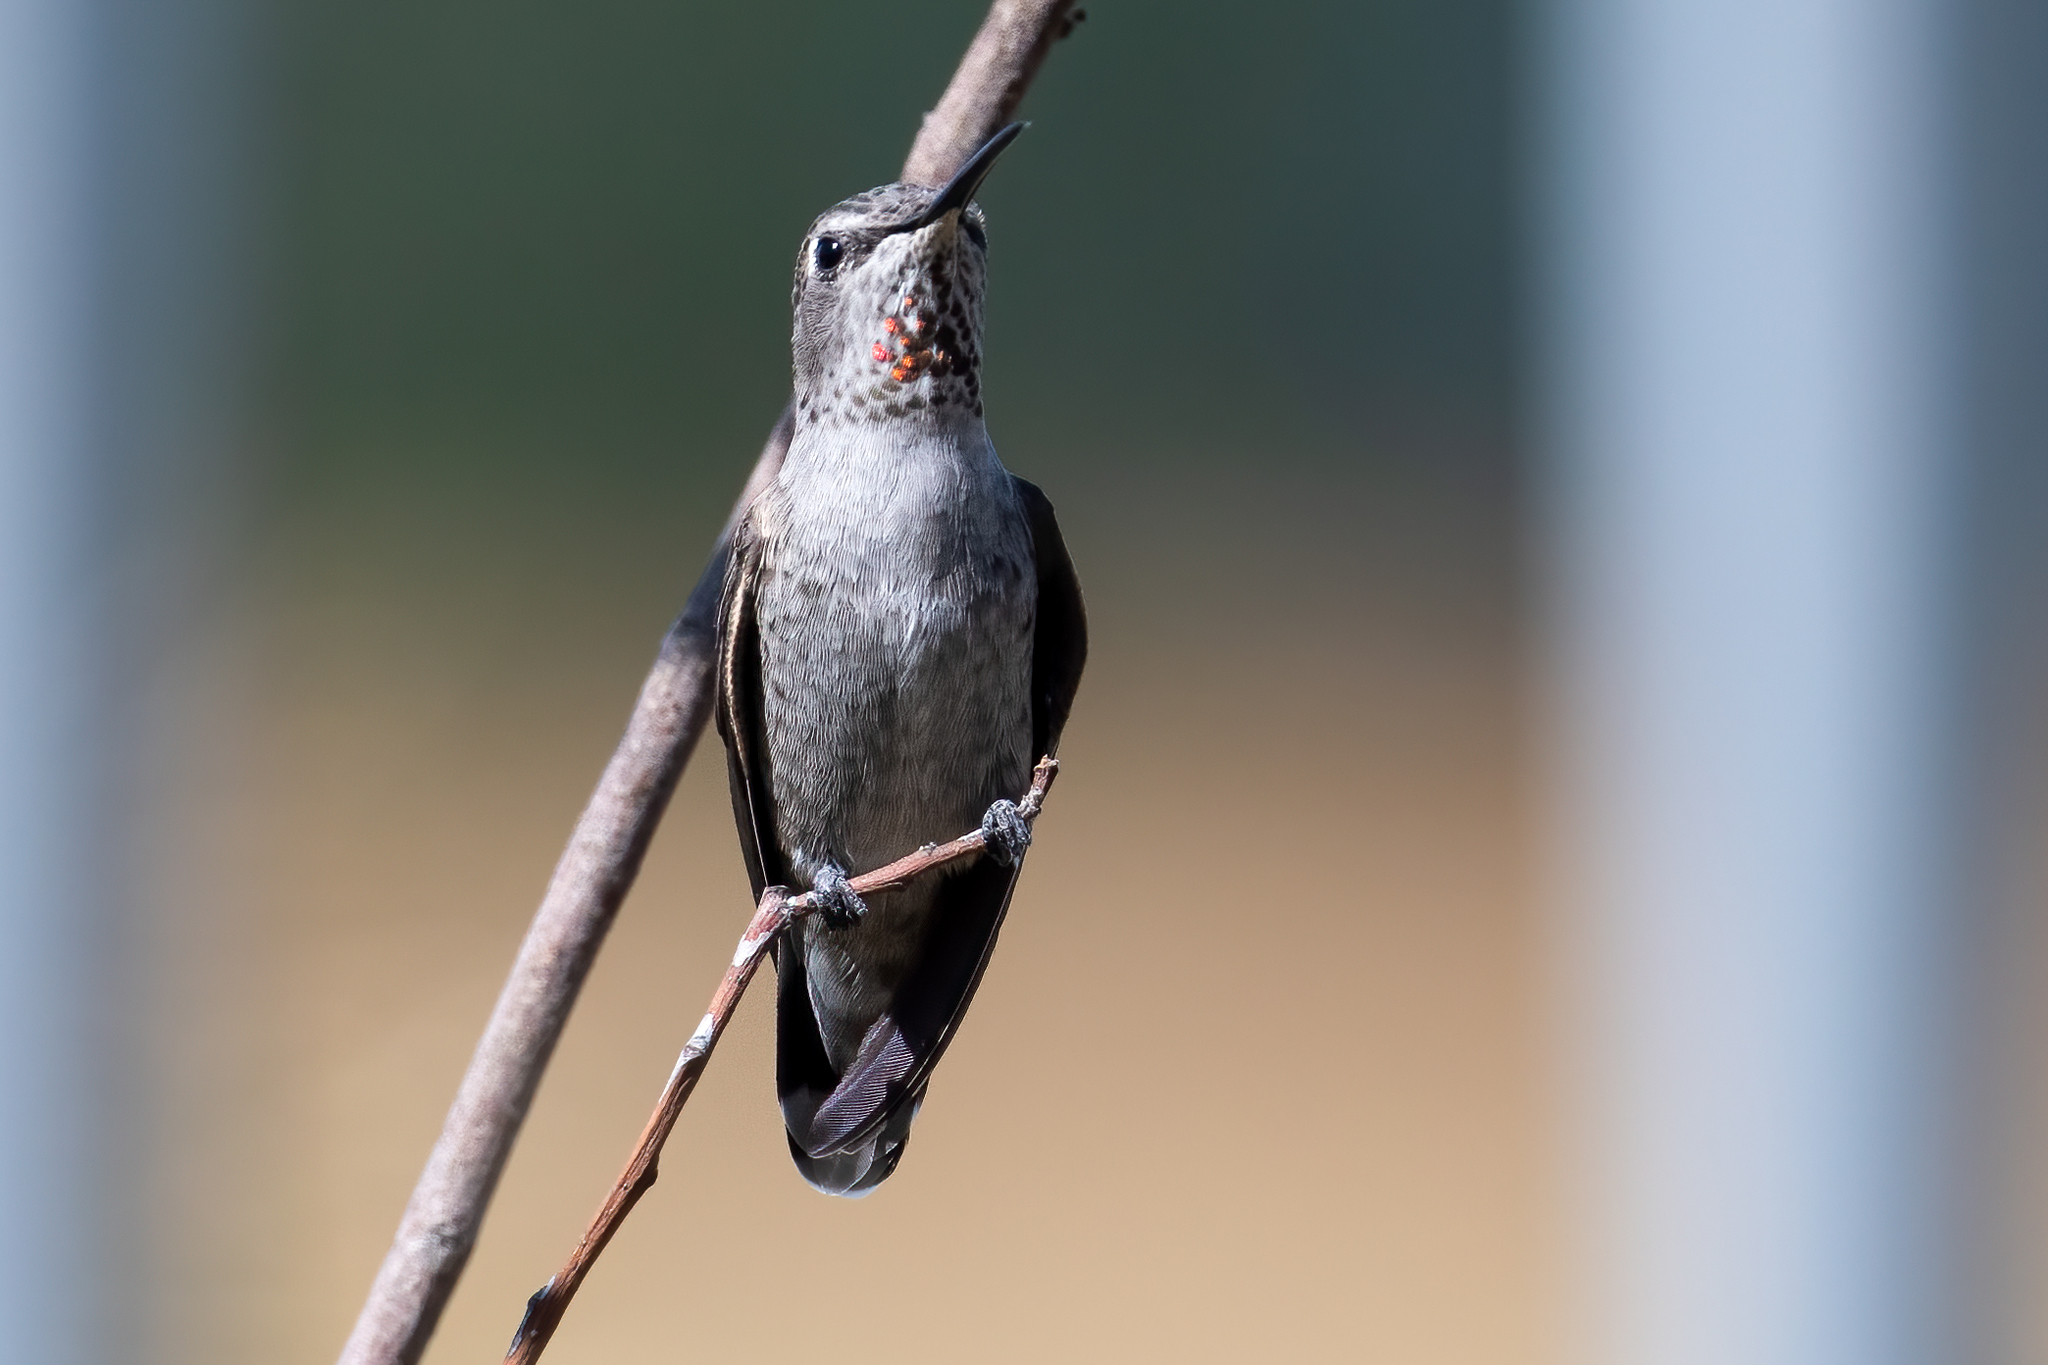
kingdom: Animalia
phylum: Chordata
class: Aves
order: Apodiformes
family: Trochilidae
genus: Calypte
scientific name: Calypte anna
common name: Anna's hummingbird
